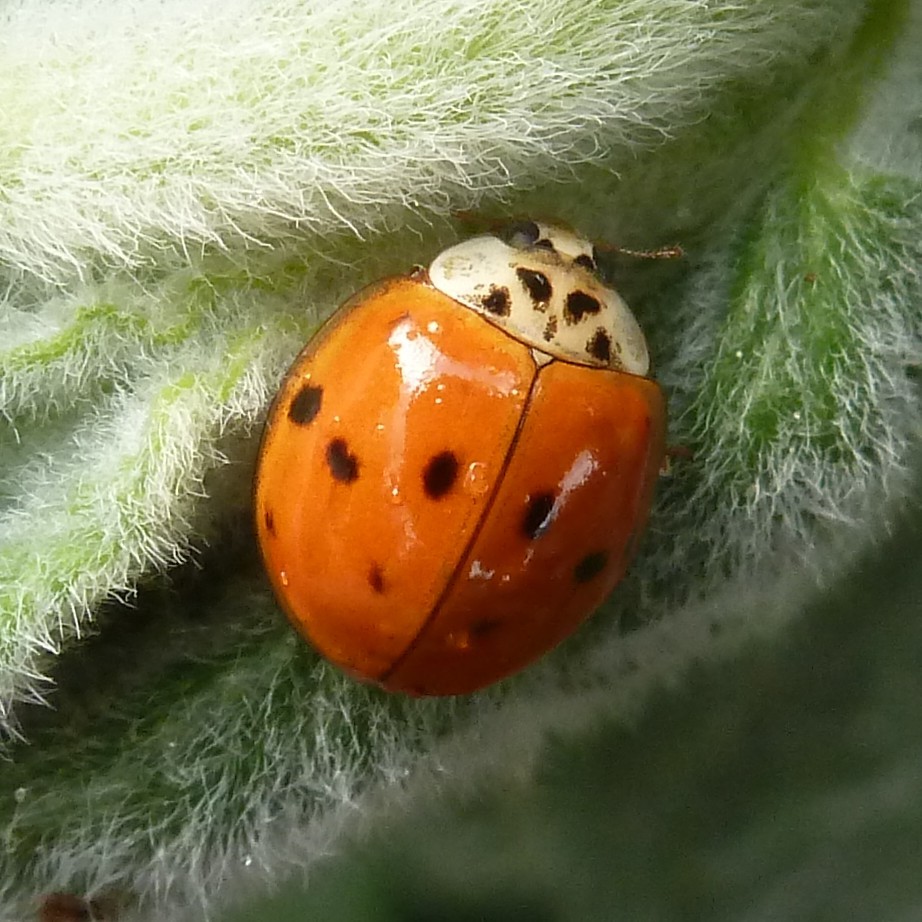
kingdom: Animalia
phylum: Arthropoda
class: Insecta
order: Coleoptera
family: Coccinellidae
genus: Harmonia
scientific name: Harmonia axyridis
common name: Harlequin ladybird
